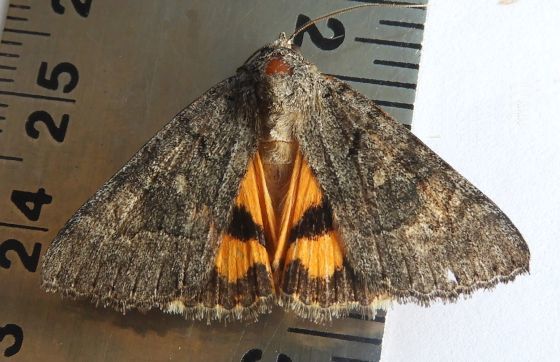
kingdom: Animalia
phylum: Arthropoda
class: Insecta
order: Lepidoptera
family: Erebidae
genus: Catocala
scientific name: Catocala chelidonia
